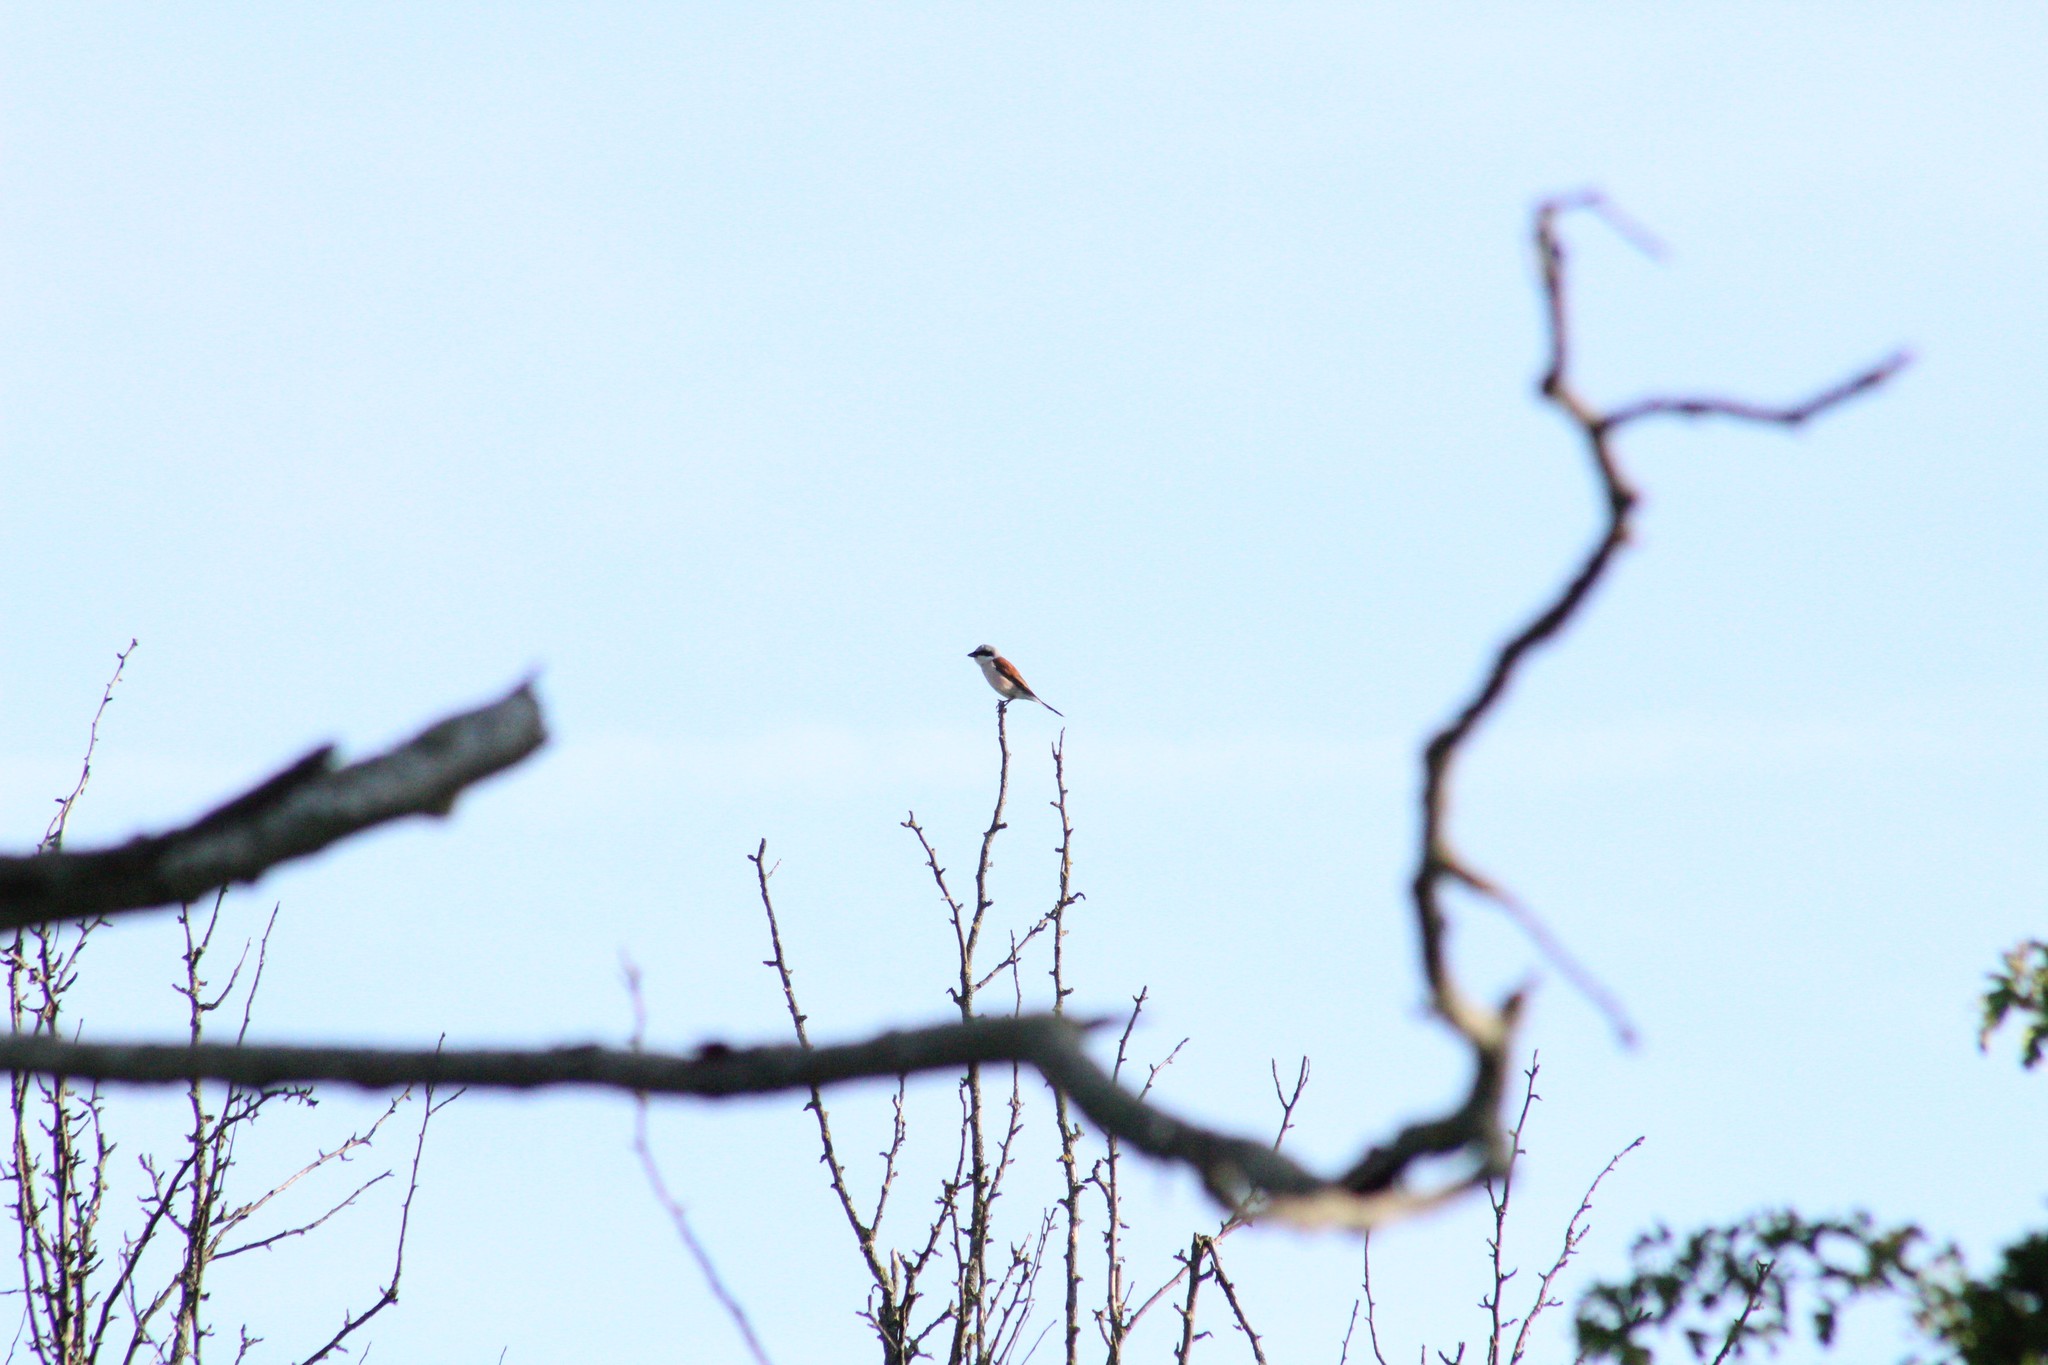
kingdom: Animalia
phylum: Chordata
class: Aves
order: Passeriformes
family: Laniidae
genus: Lanius
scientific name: Lanius collurio
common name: Red-backed shrike
